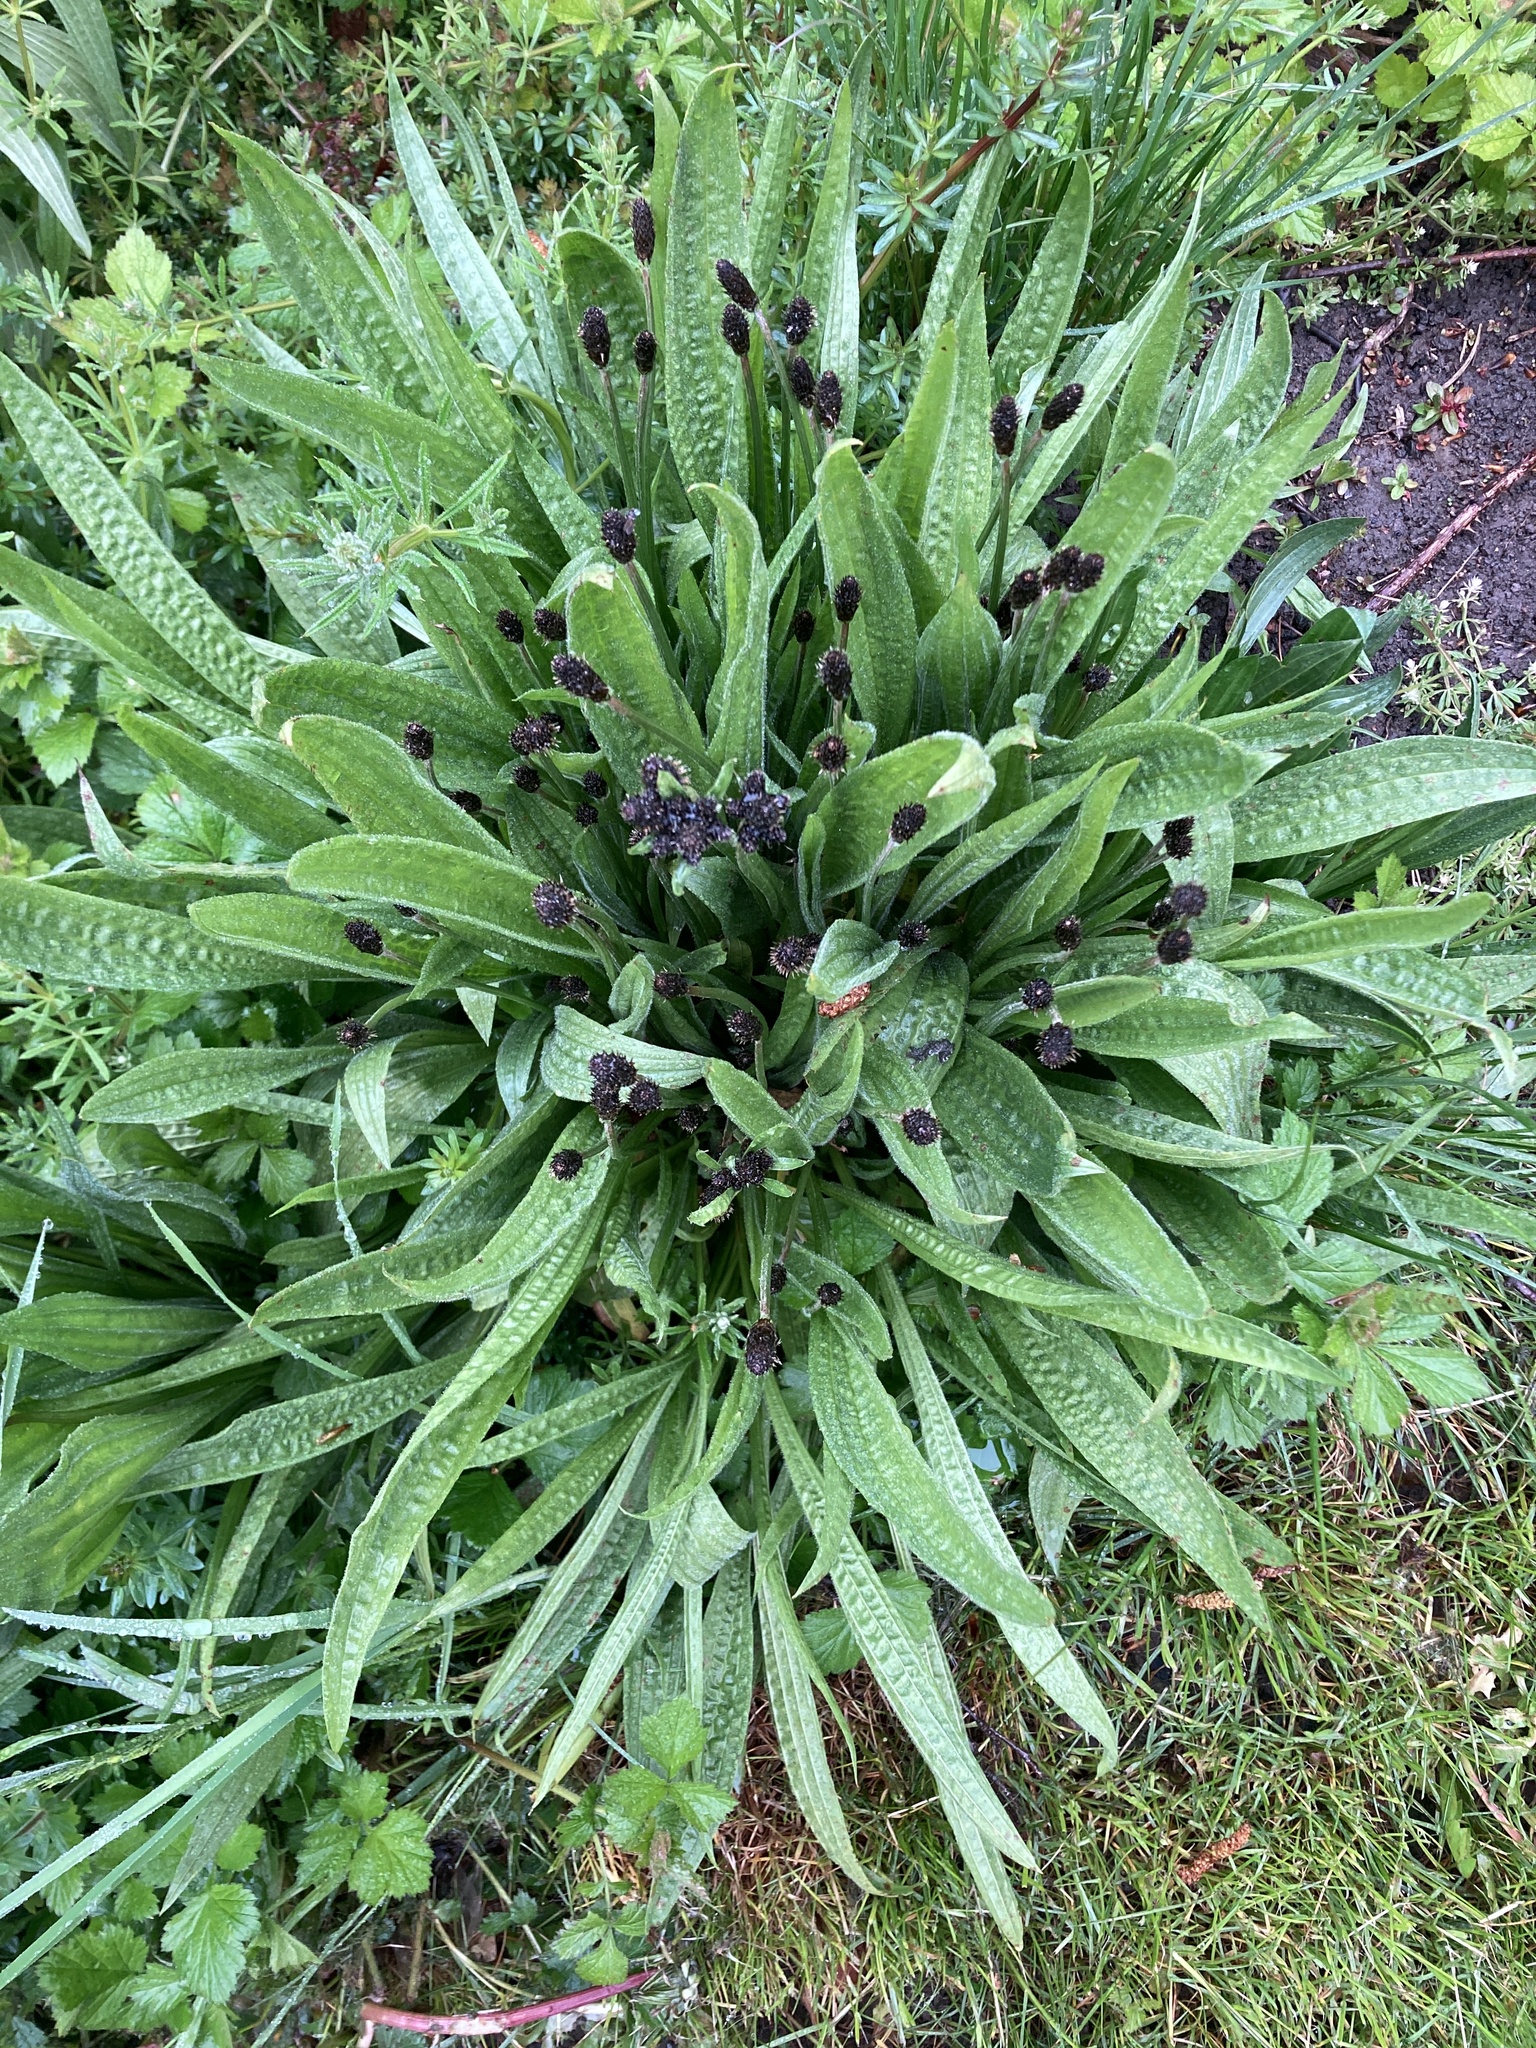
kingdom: Plantae
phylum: Tracheophyta
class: Magnoliopsida
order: Lamiales
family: Plantaginaceae
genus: Plantago
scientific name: Plantago lanceolata
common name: Ribwort plantain
